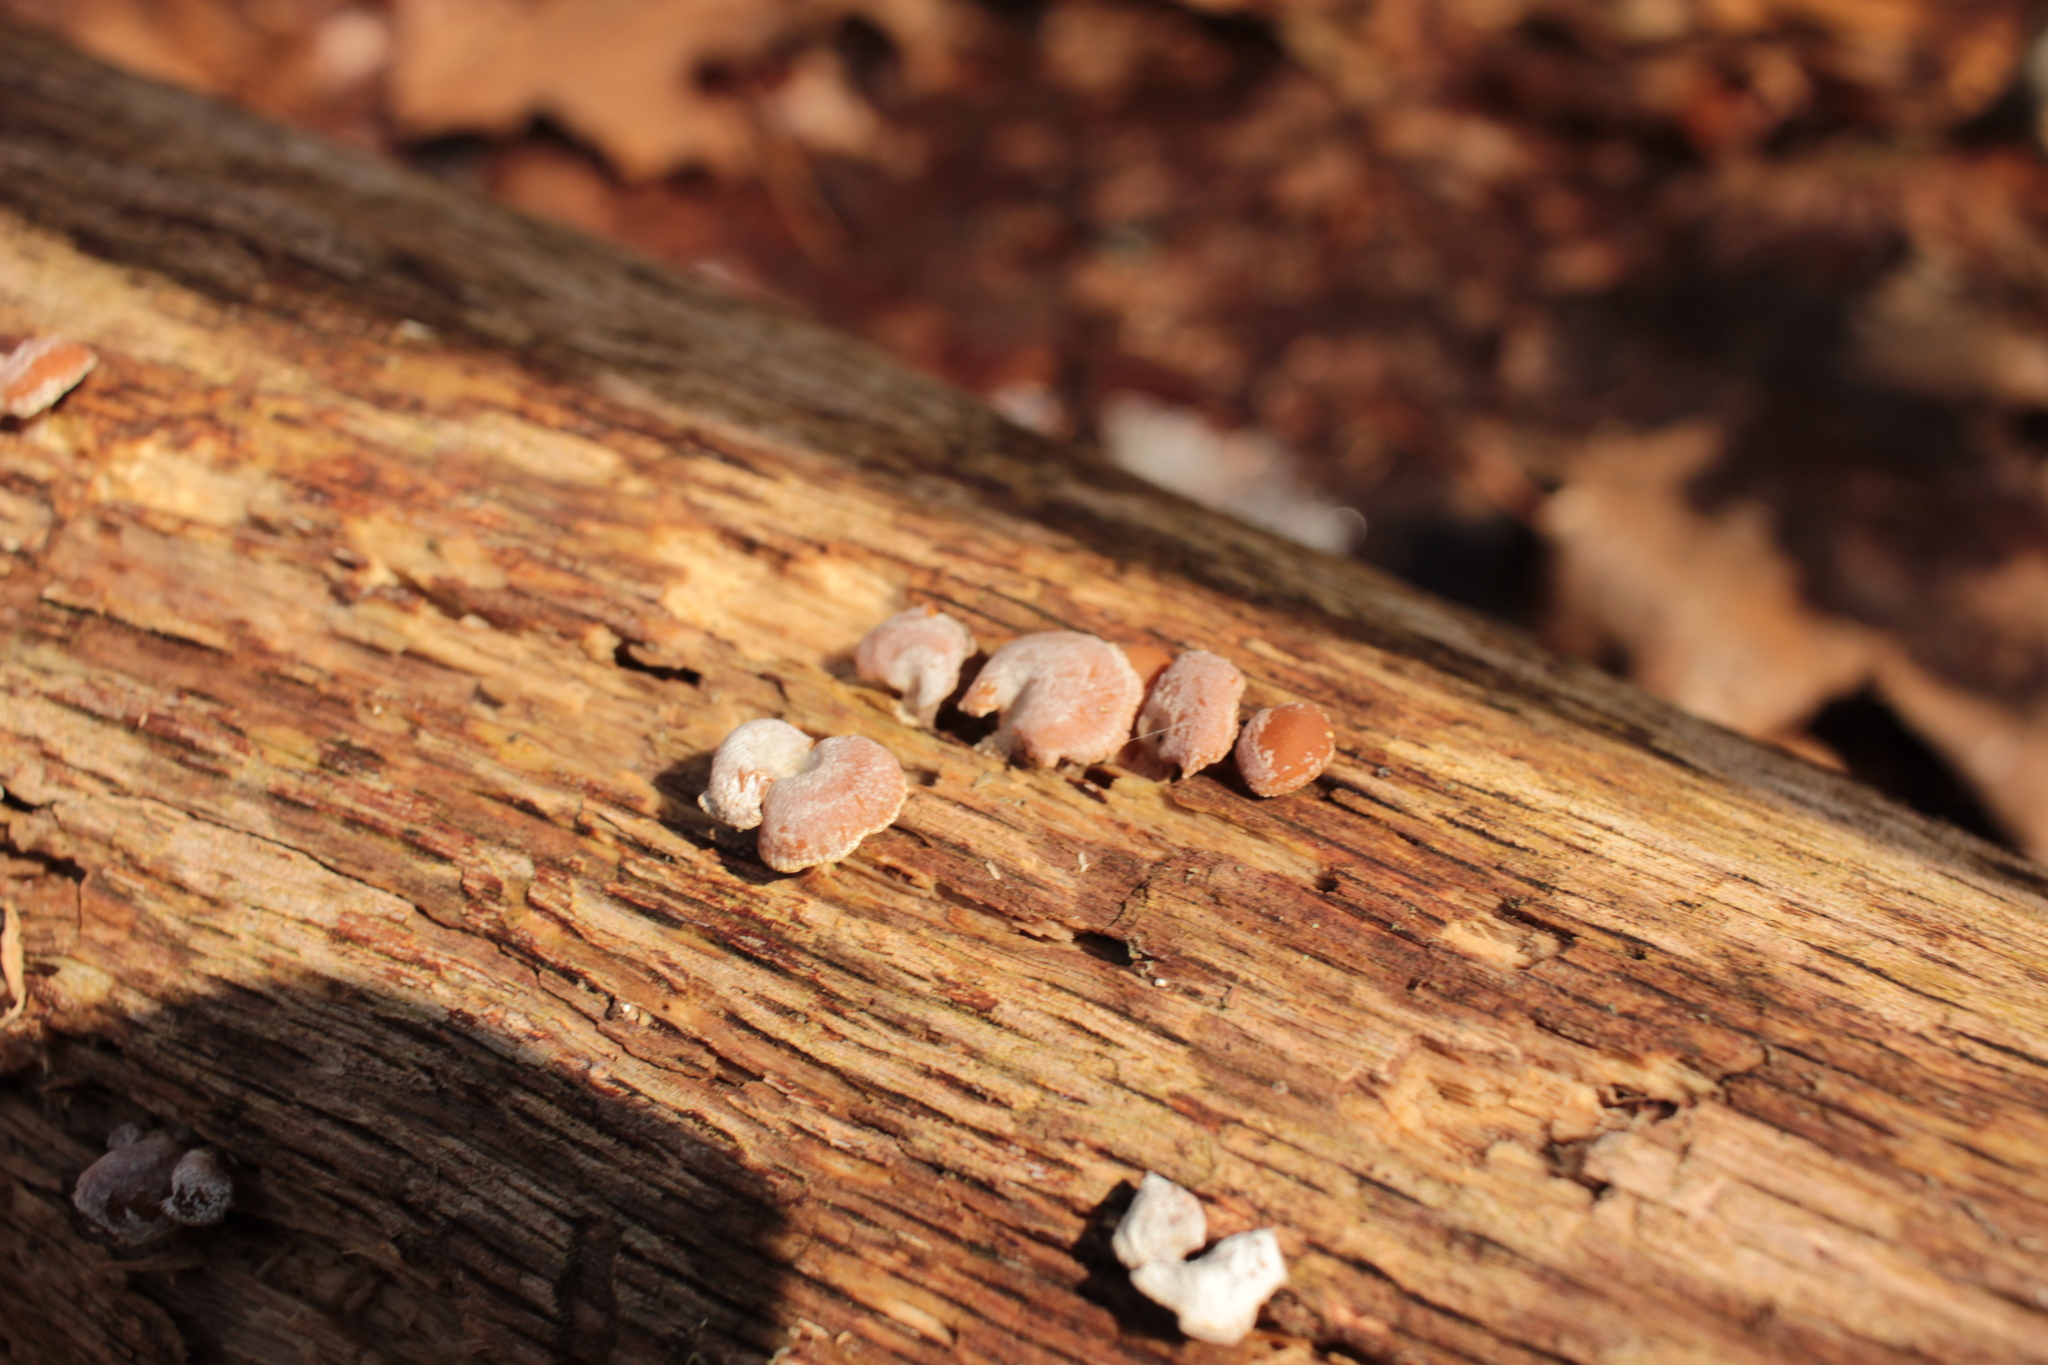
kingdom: Fungi
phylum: Basidiomycota
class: Agaricomycetes
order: Agaricales
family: Mycenaceae
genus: Panellus
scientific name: Panellus stipticus
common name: Bitter oysterling
